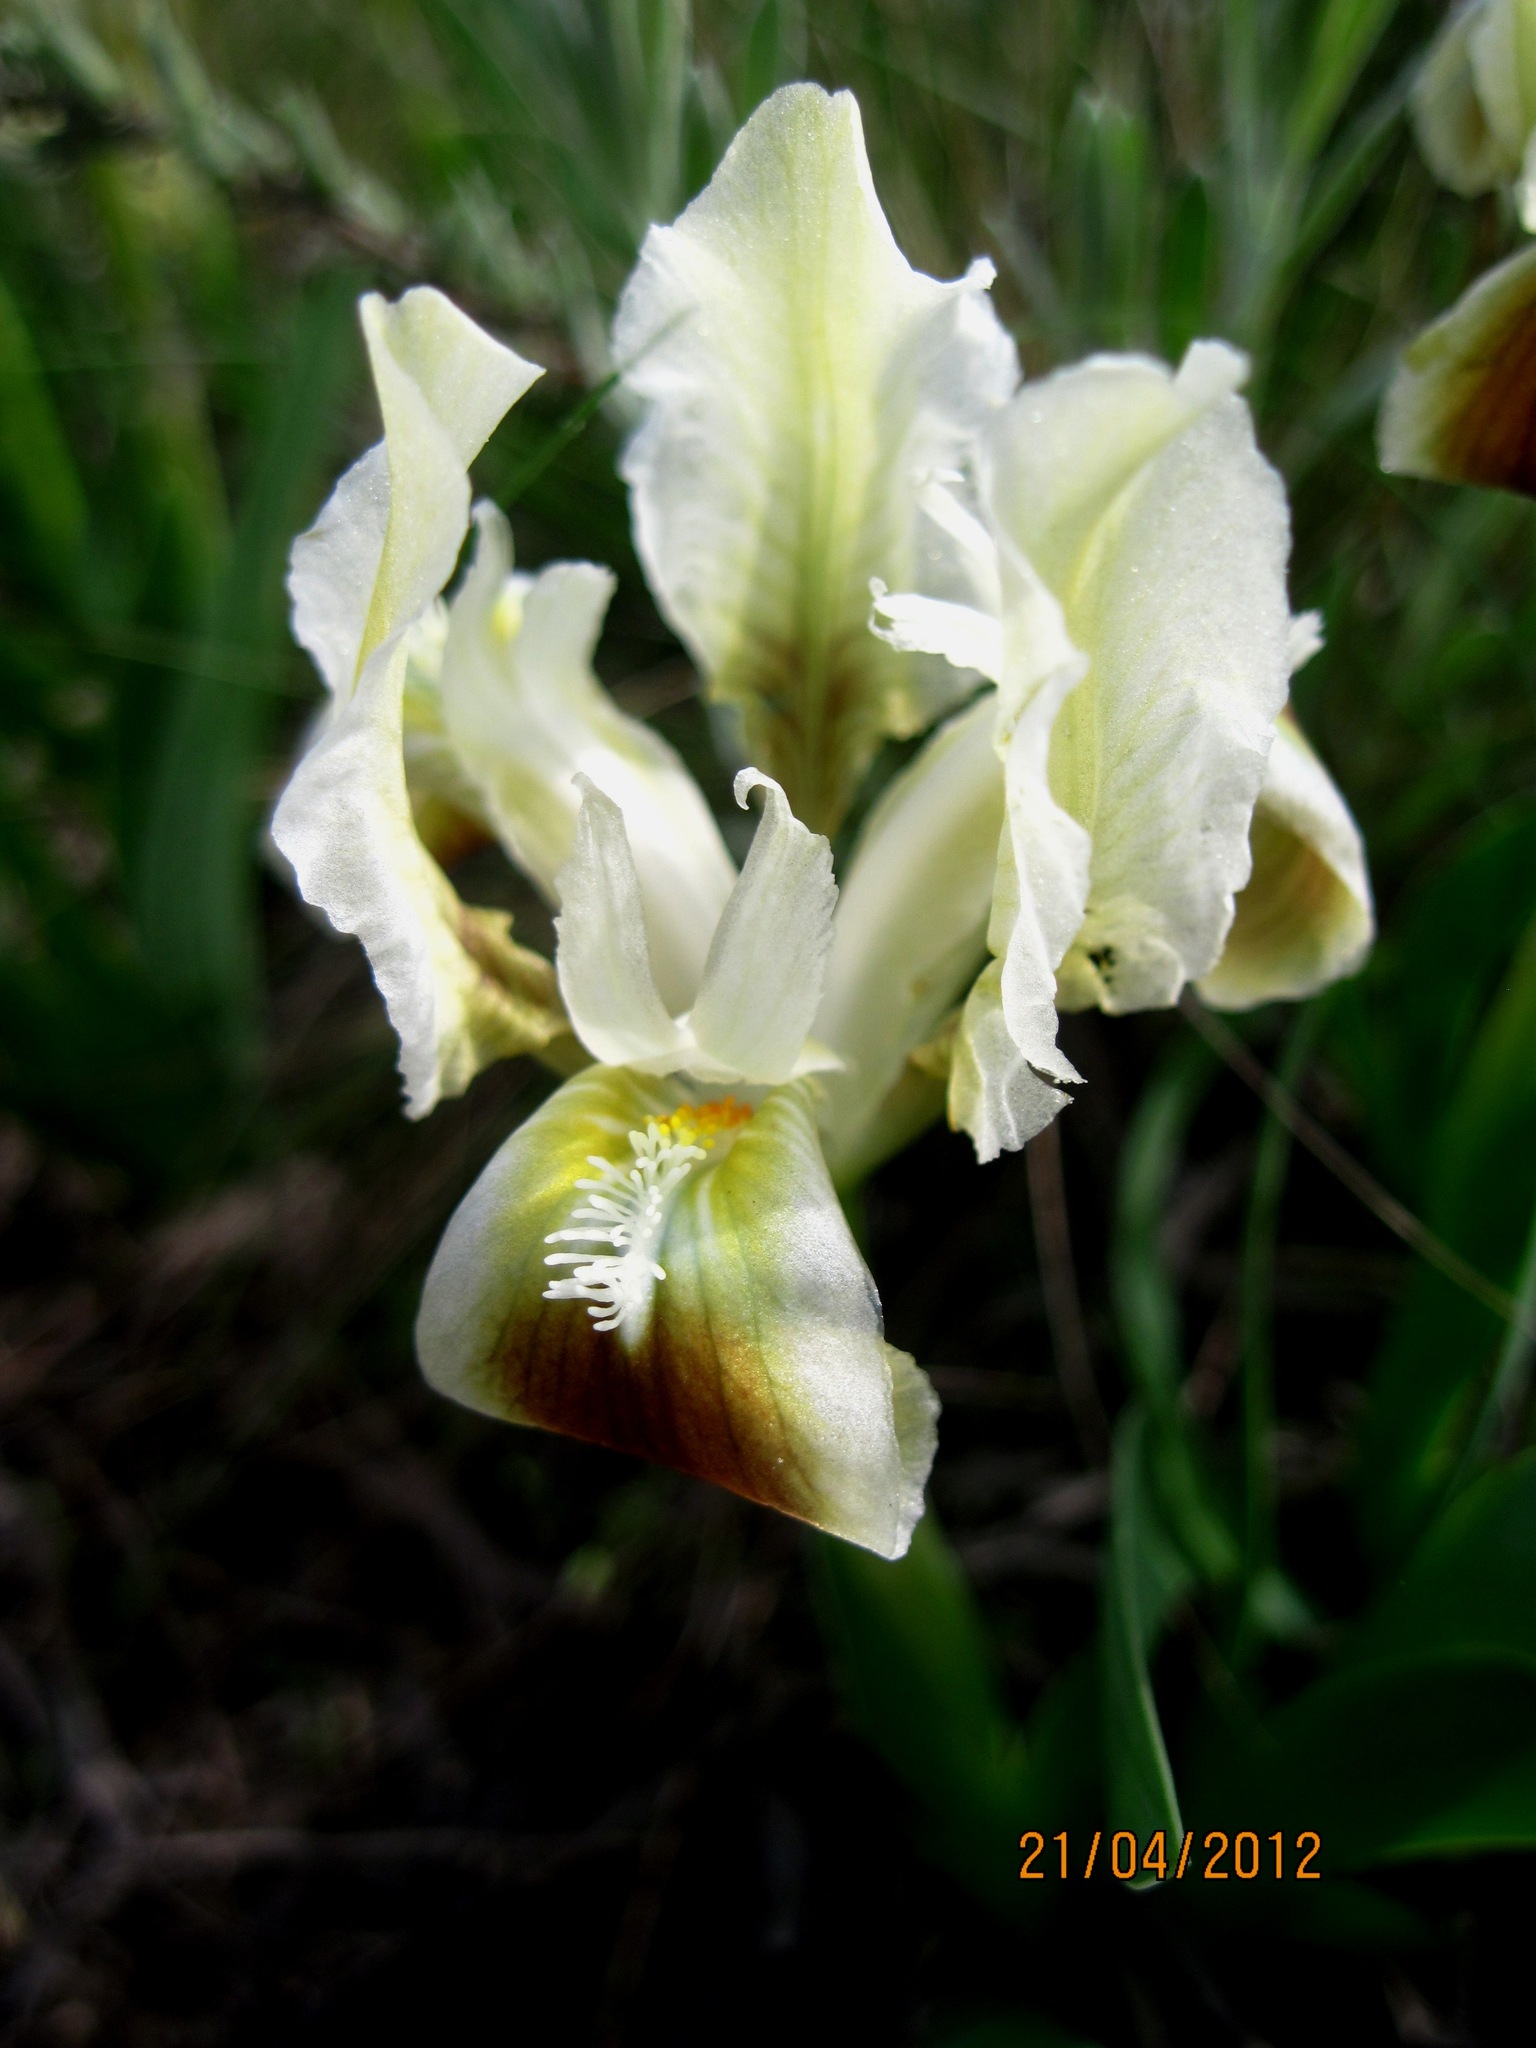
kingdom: Plantae
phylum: Tracheophyta
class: Liliopsida
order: Asparagales
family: Iridaceae
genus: Iris
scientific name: Iris pumila
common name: Dwarf iris
